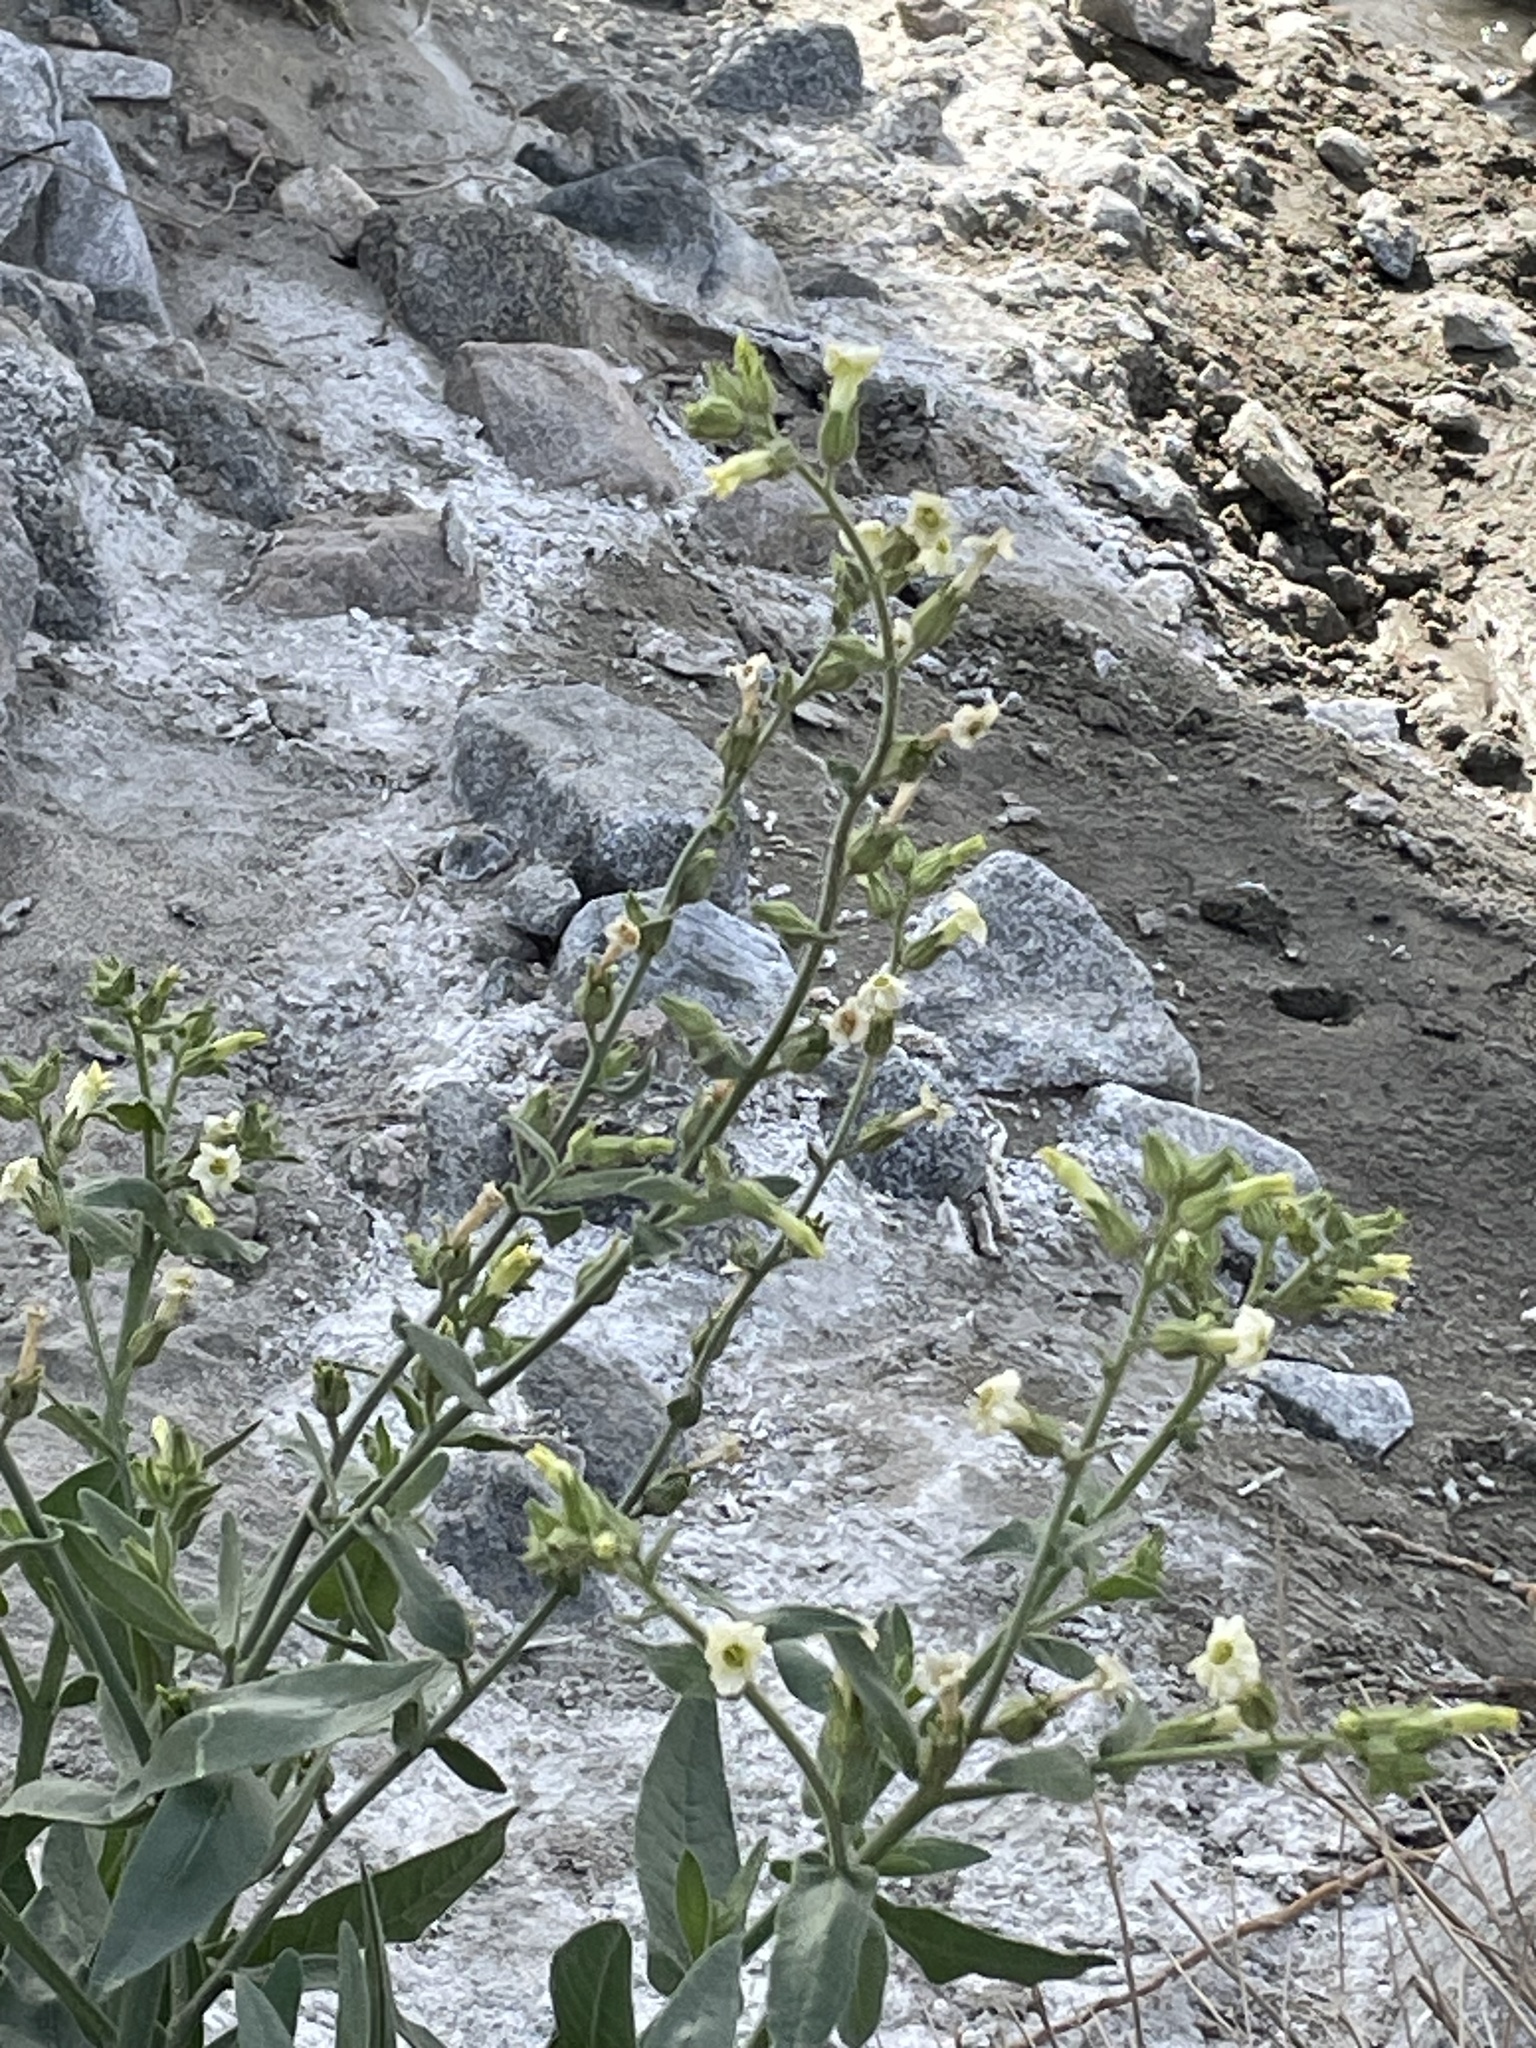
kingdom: Plantae
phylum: Tracheophyta
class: Magnoliopsida
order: Solanales
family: Solanaceae
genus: Nicotiana
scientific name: Nicotiana obtusifolia
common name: Desert tobacco
